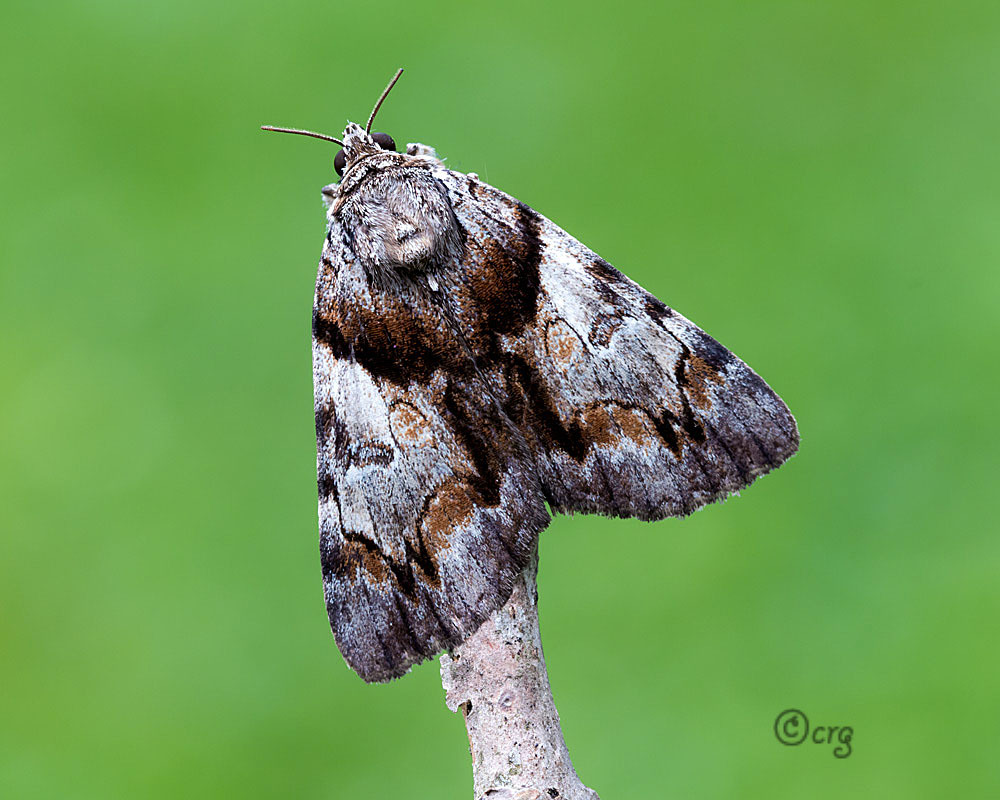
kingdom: Animalia
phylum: Arthropoda
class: Insecta
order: Lepidoptera
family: Erebidae
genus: Catocala
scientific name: Catocala blandula
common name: Charming underwing
